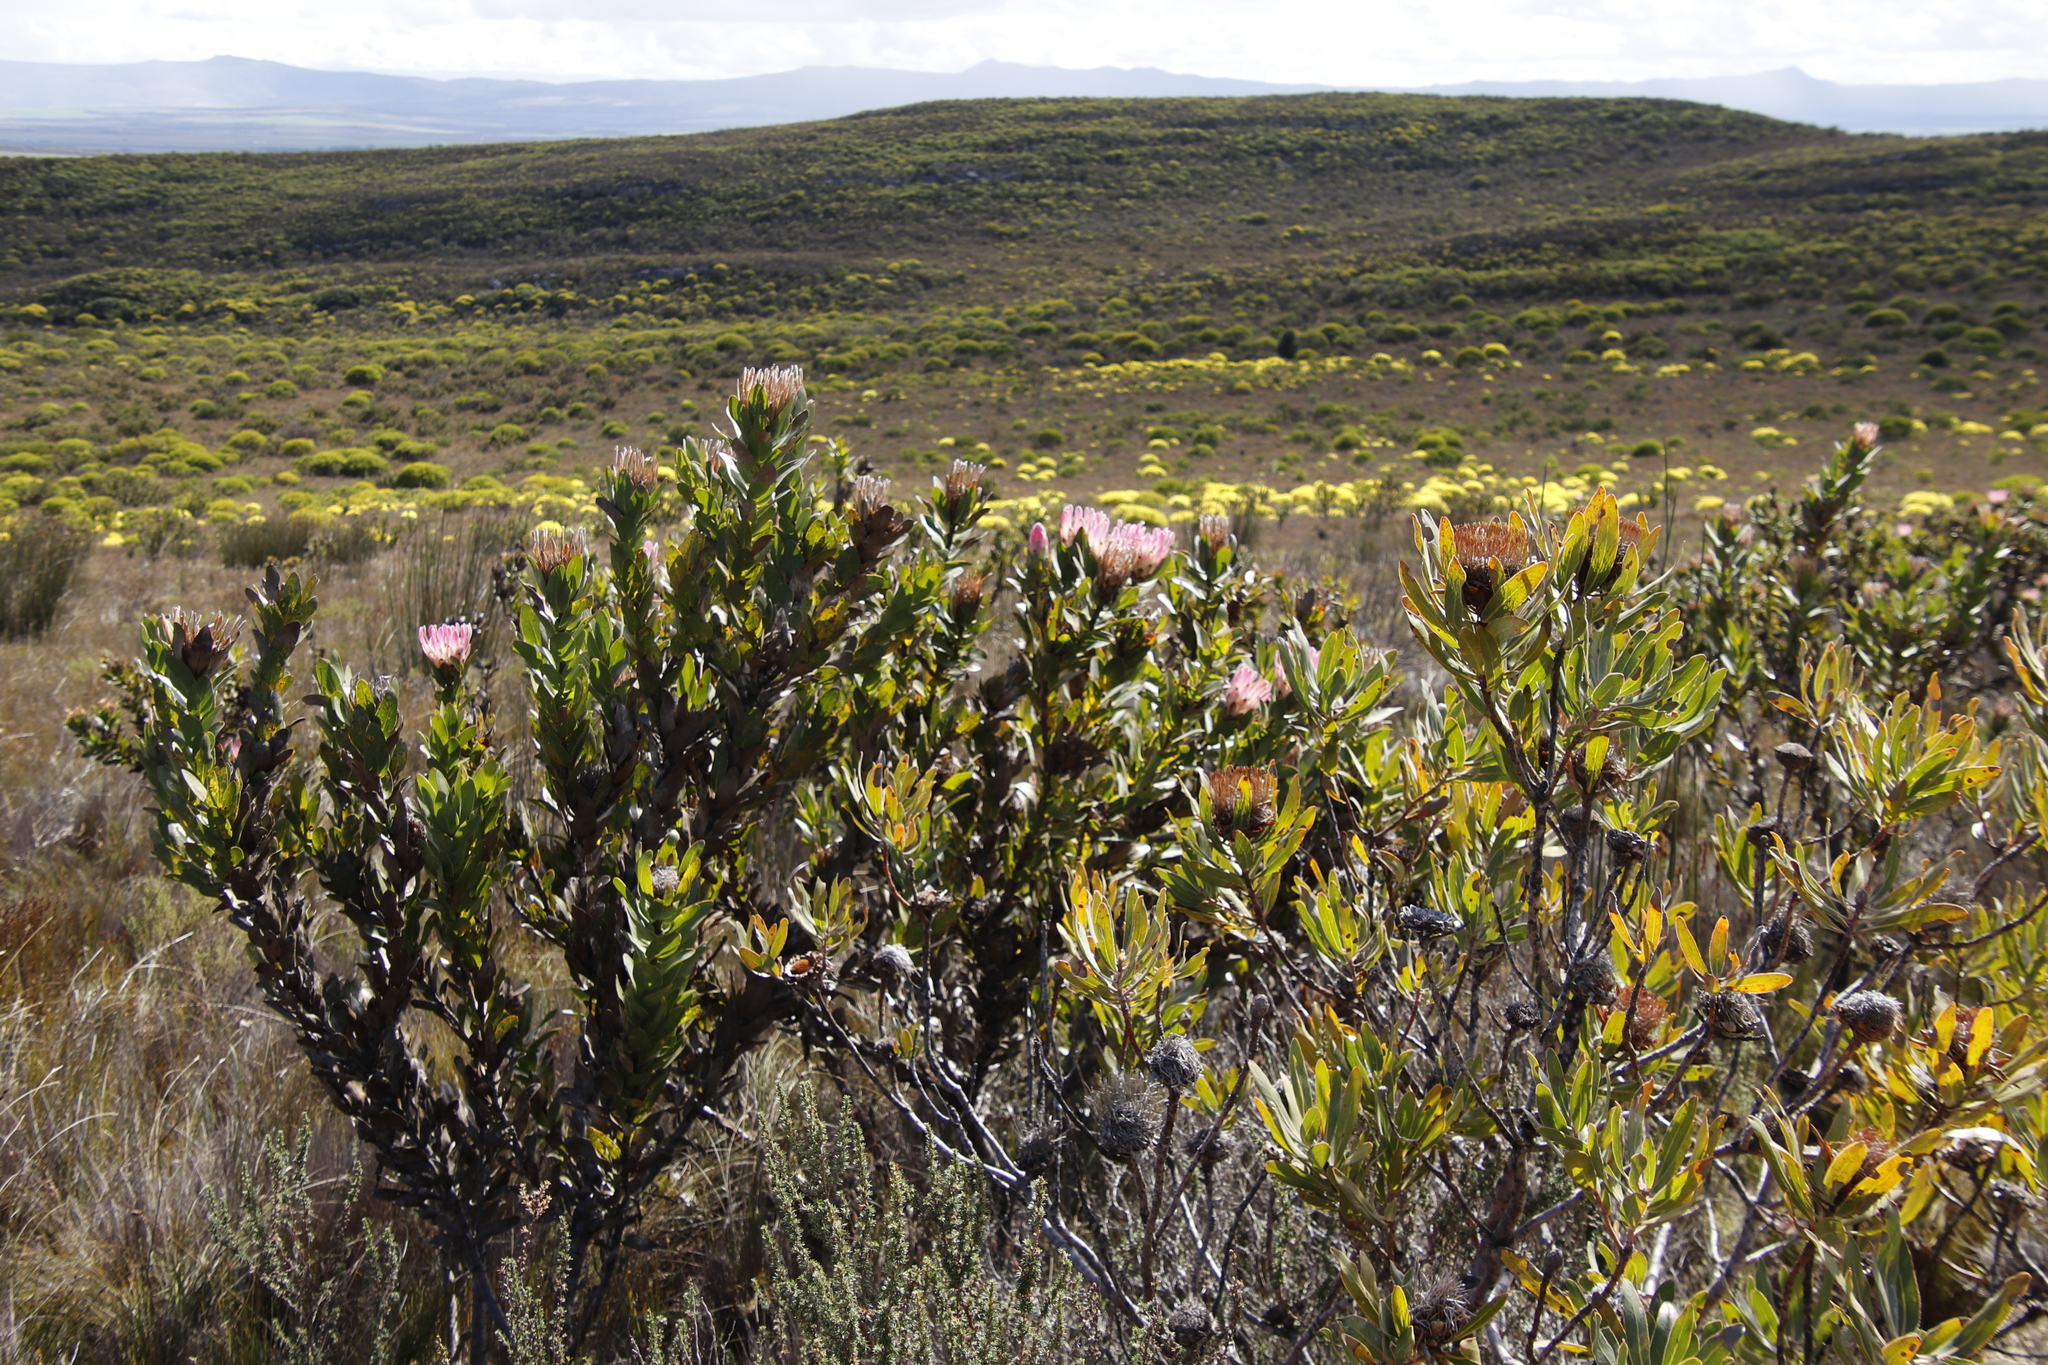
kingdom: Plantae
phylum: Tracheophyta
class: Magnoliopsida
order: Proteales
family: Proteaceae
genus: Protea
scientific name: Protea compacta
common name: Bot river protea
